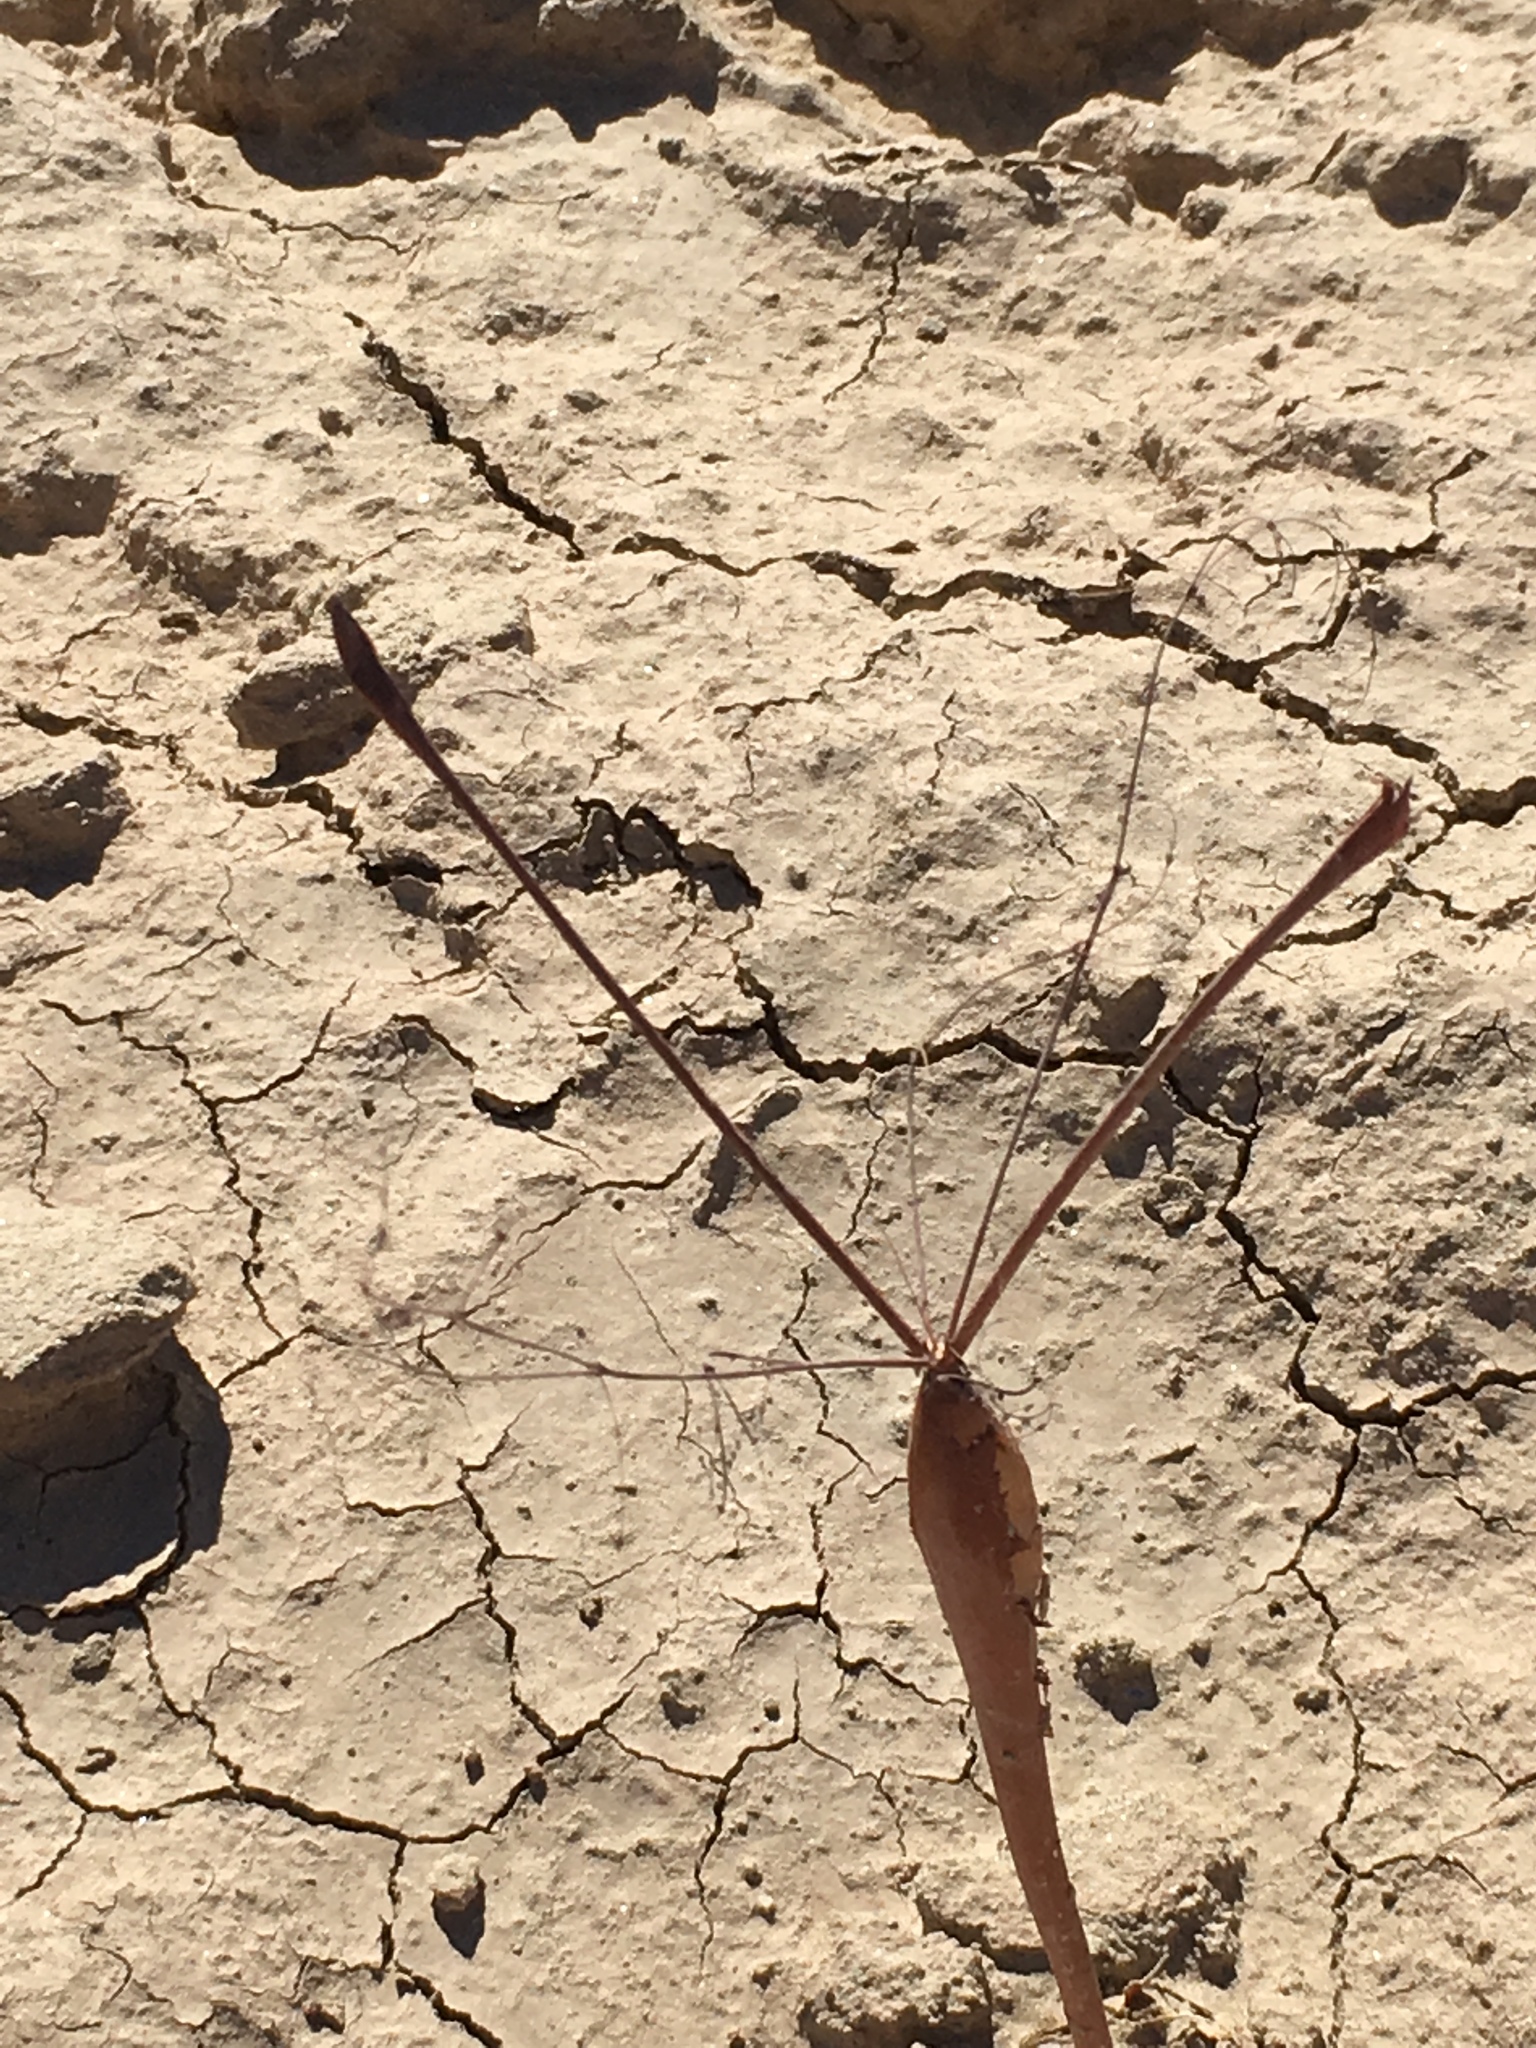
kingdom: Plantae
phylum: Tracheophyta
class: Magnoliopsida
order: Caryophyllales
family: Polygonaceae
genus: Eriogonum
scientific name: Eriogonum trichopes
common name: Little desert trumpet
